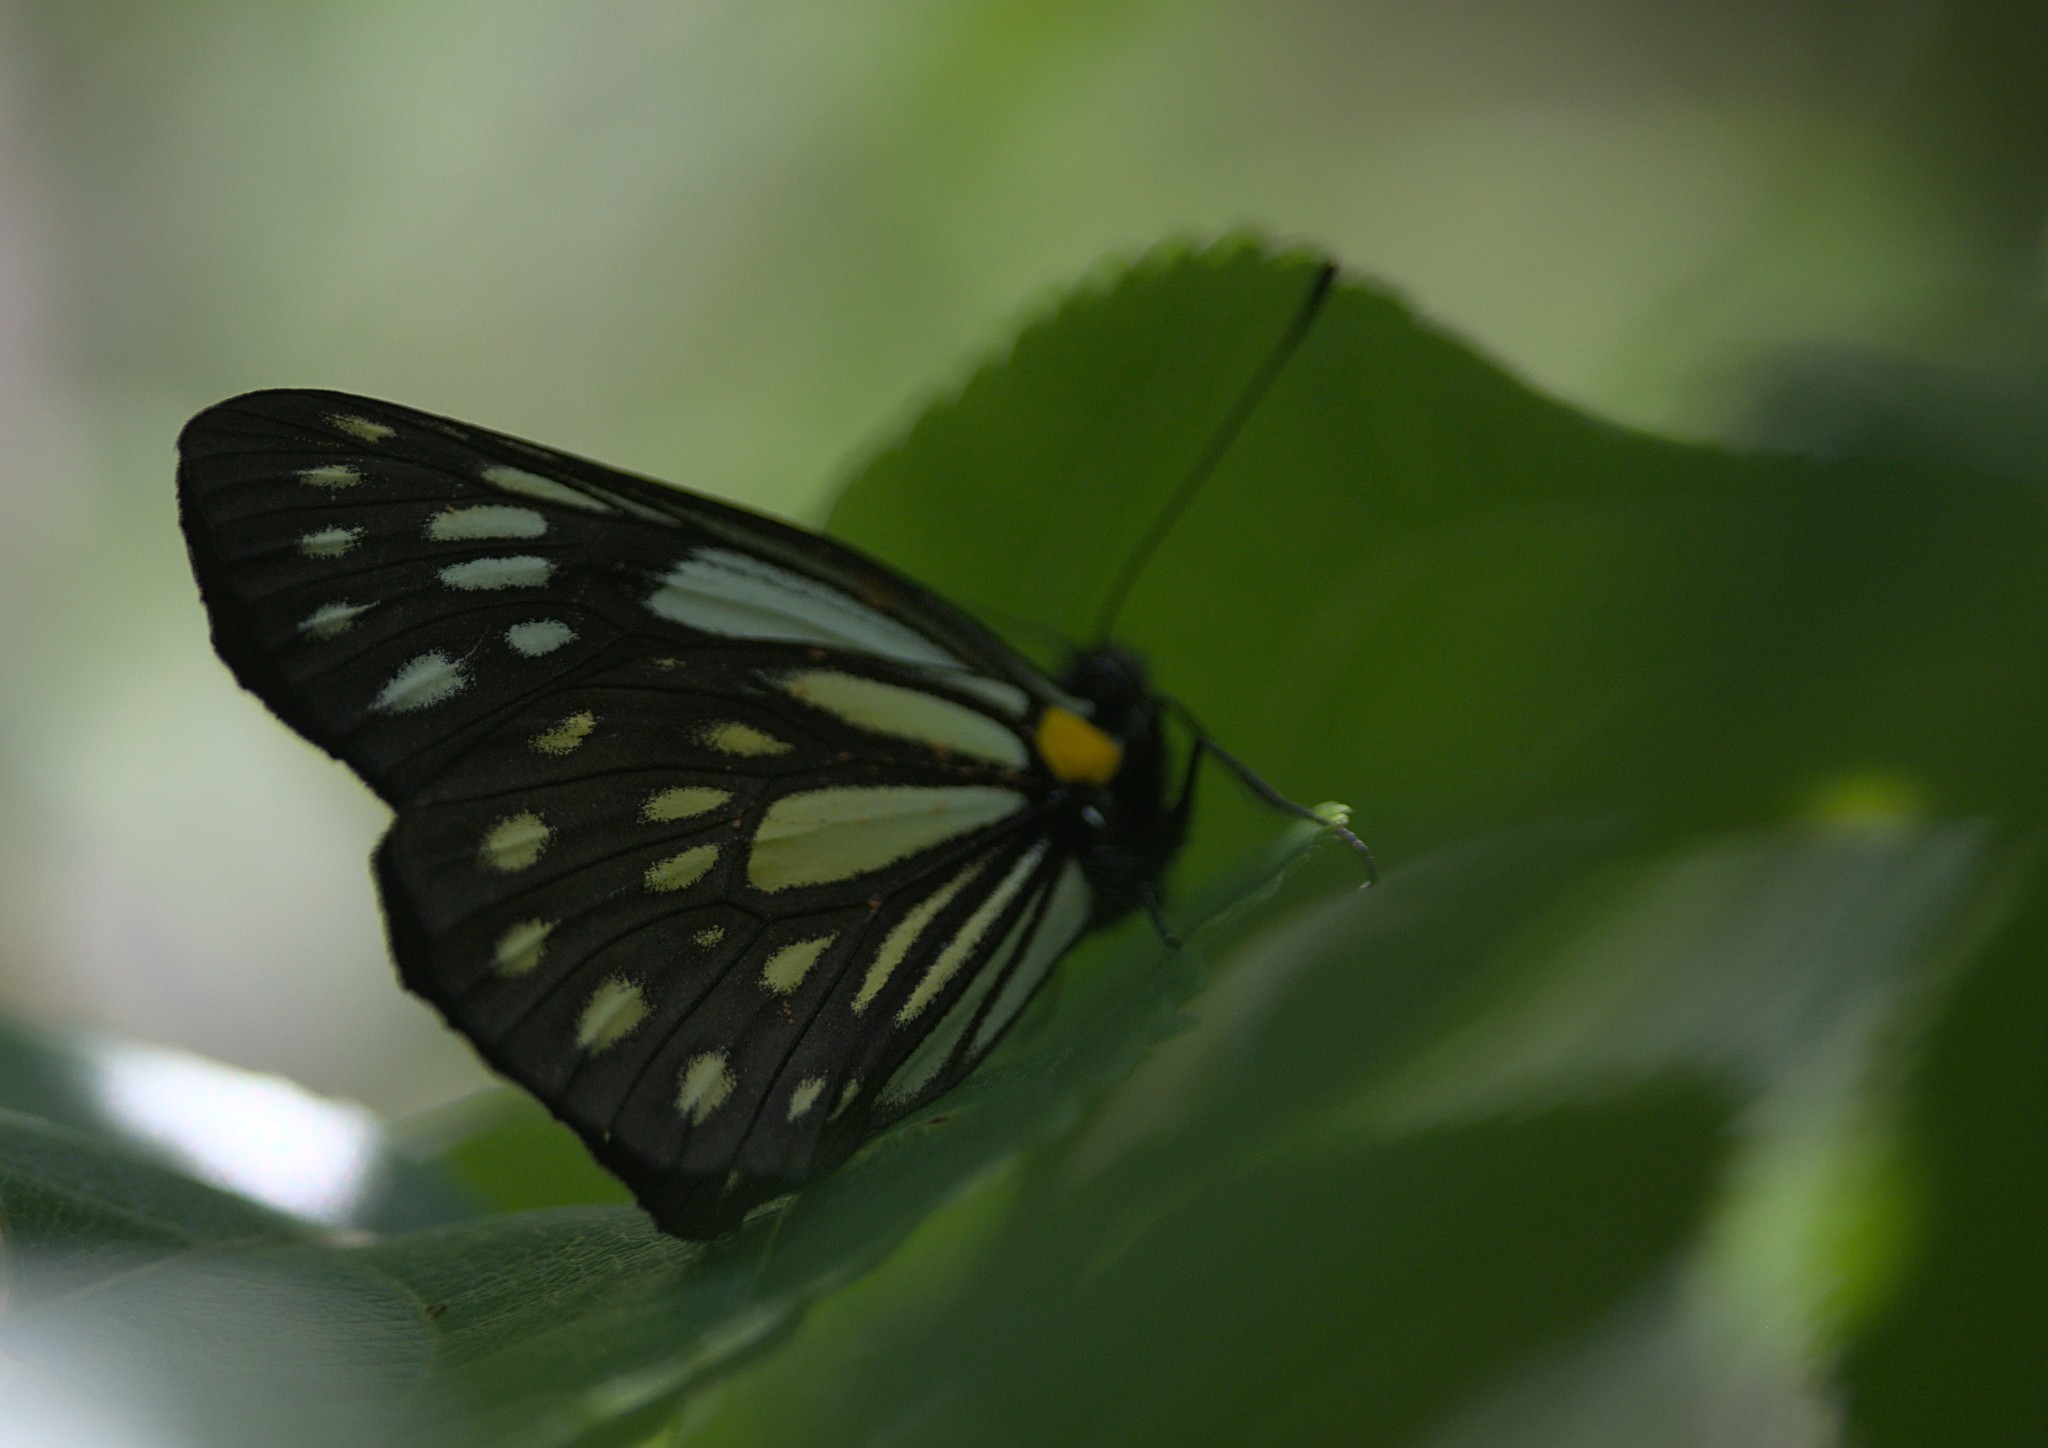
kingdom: Animalia
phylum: Arthropoda
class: Insecta
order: Lepidoptera
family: Pieridae
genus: Aporia
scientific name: Aporia agathon
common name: Great blackvein
